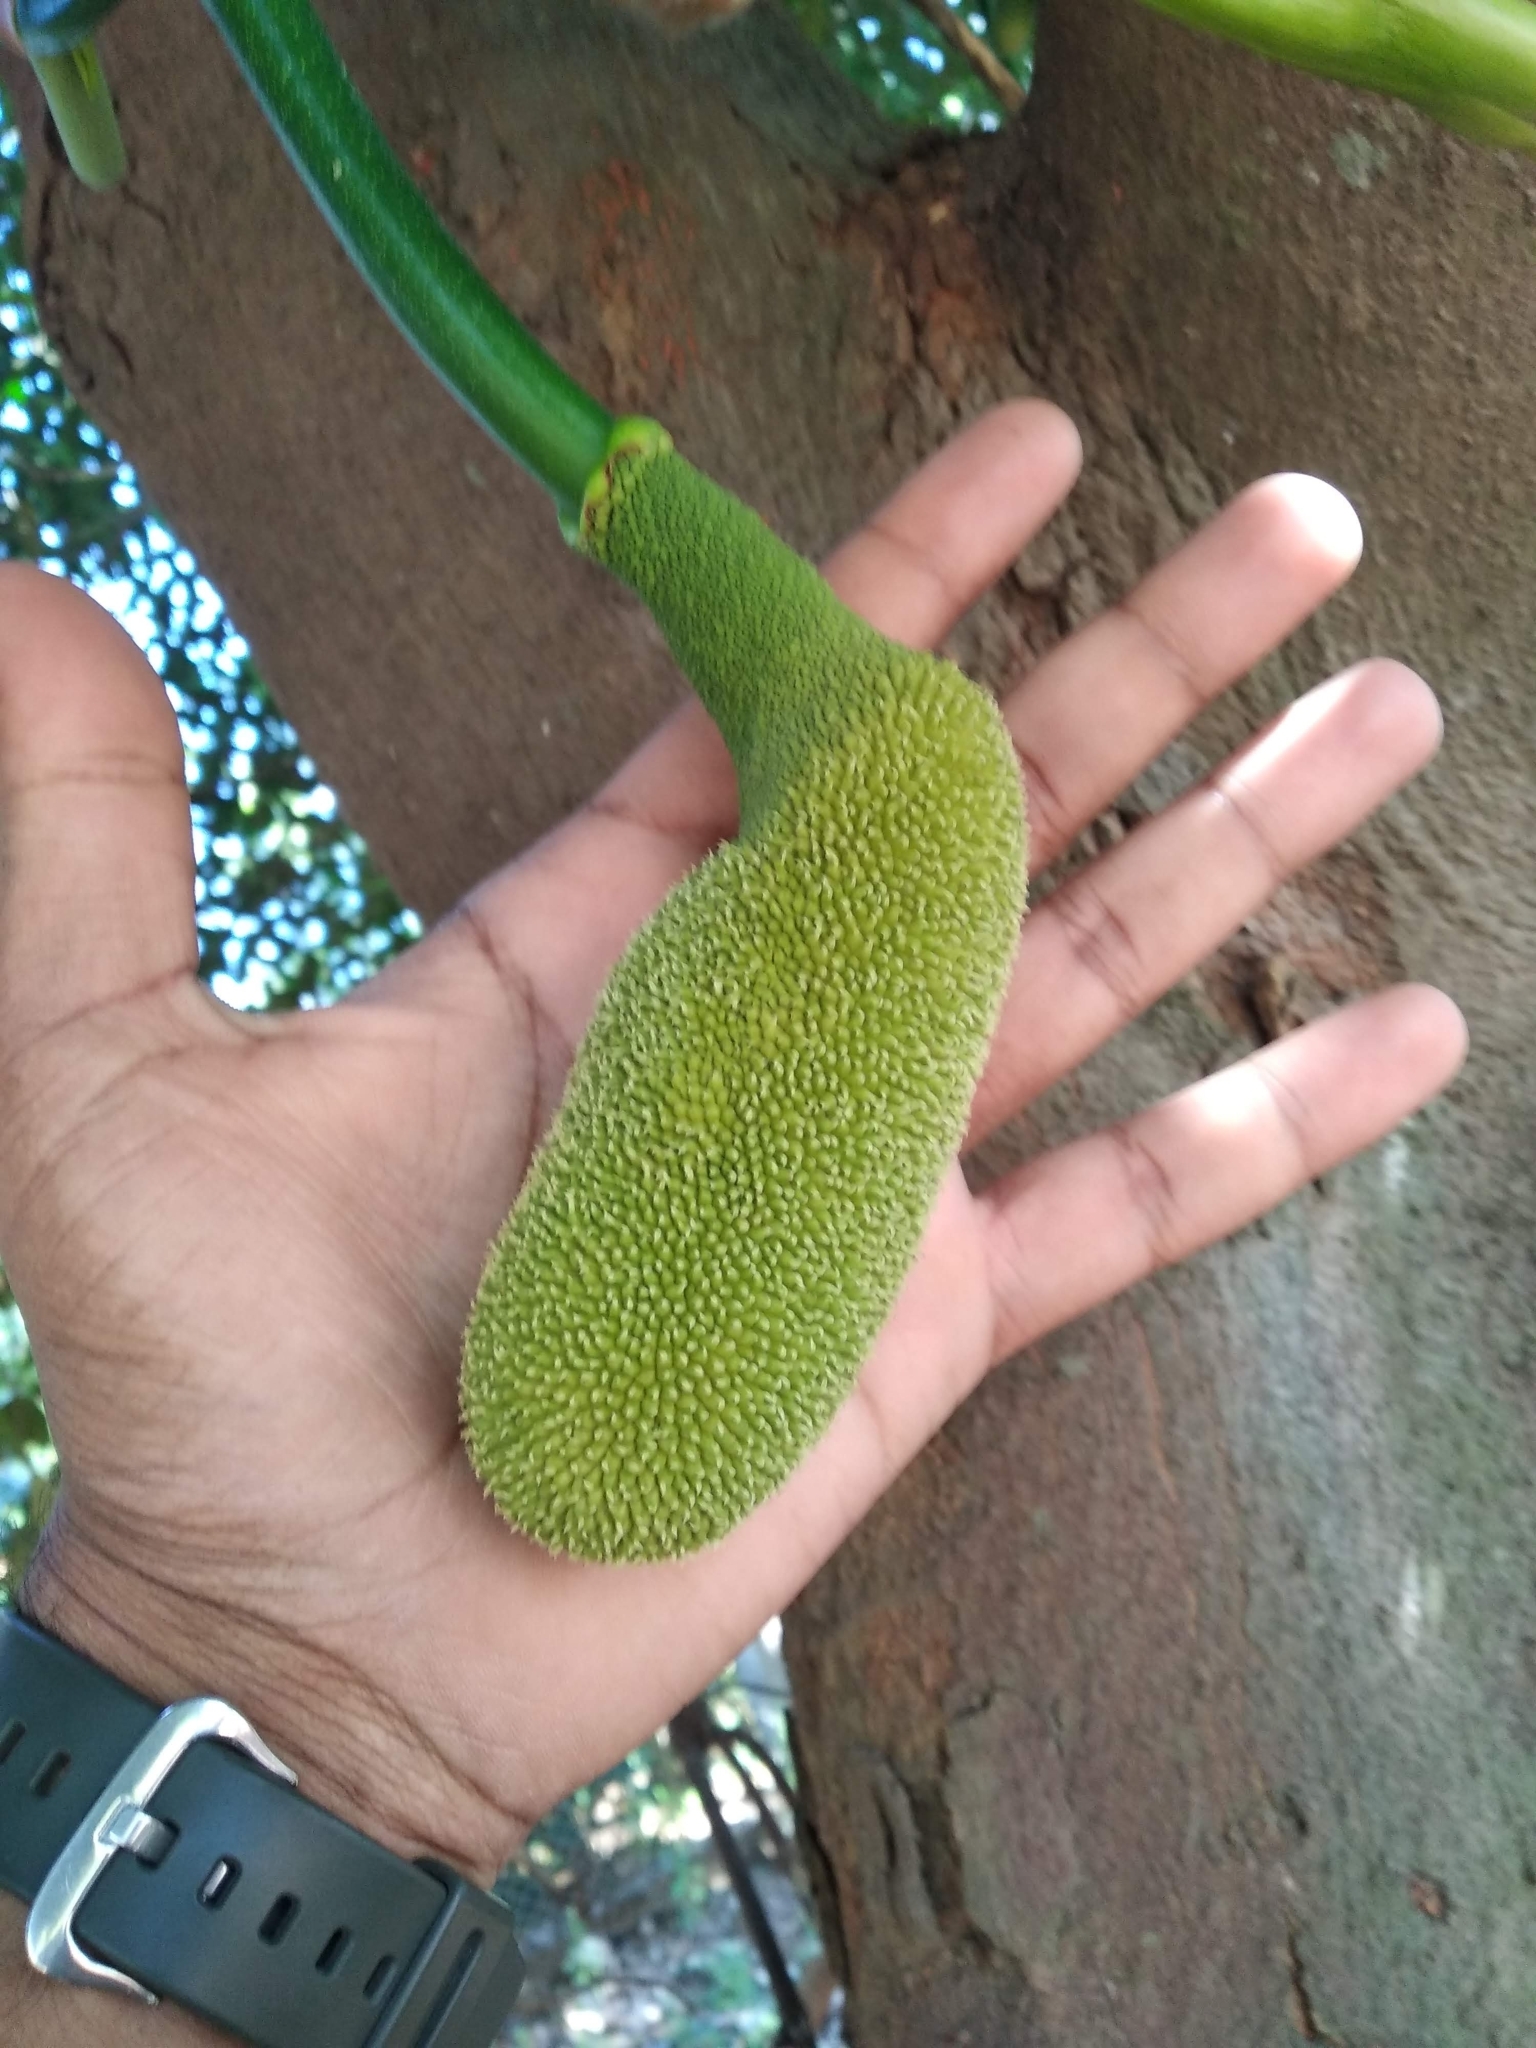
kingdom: Plantae
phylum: Tracheophyta
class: Magnoliopsida
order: Rosales
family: Moraceae
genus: Artocarpus
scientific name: Artocarpus heterophyllus
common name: Jackfruit
